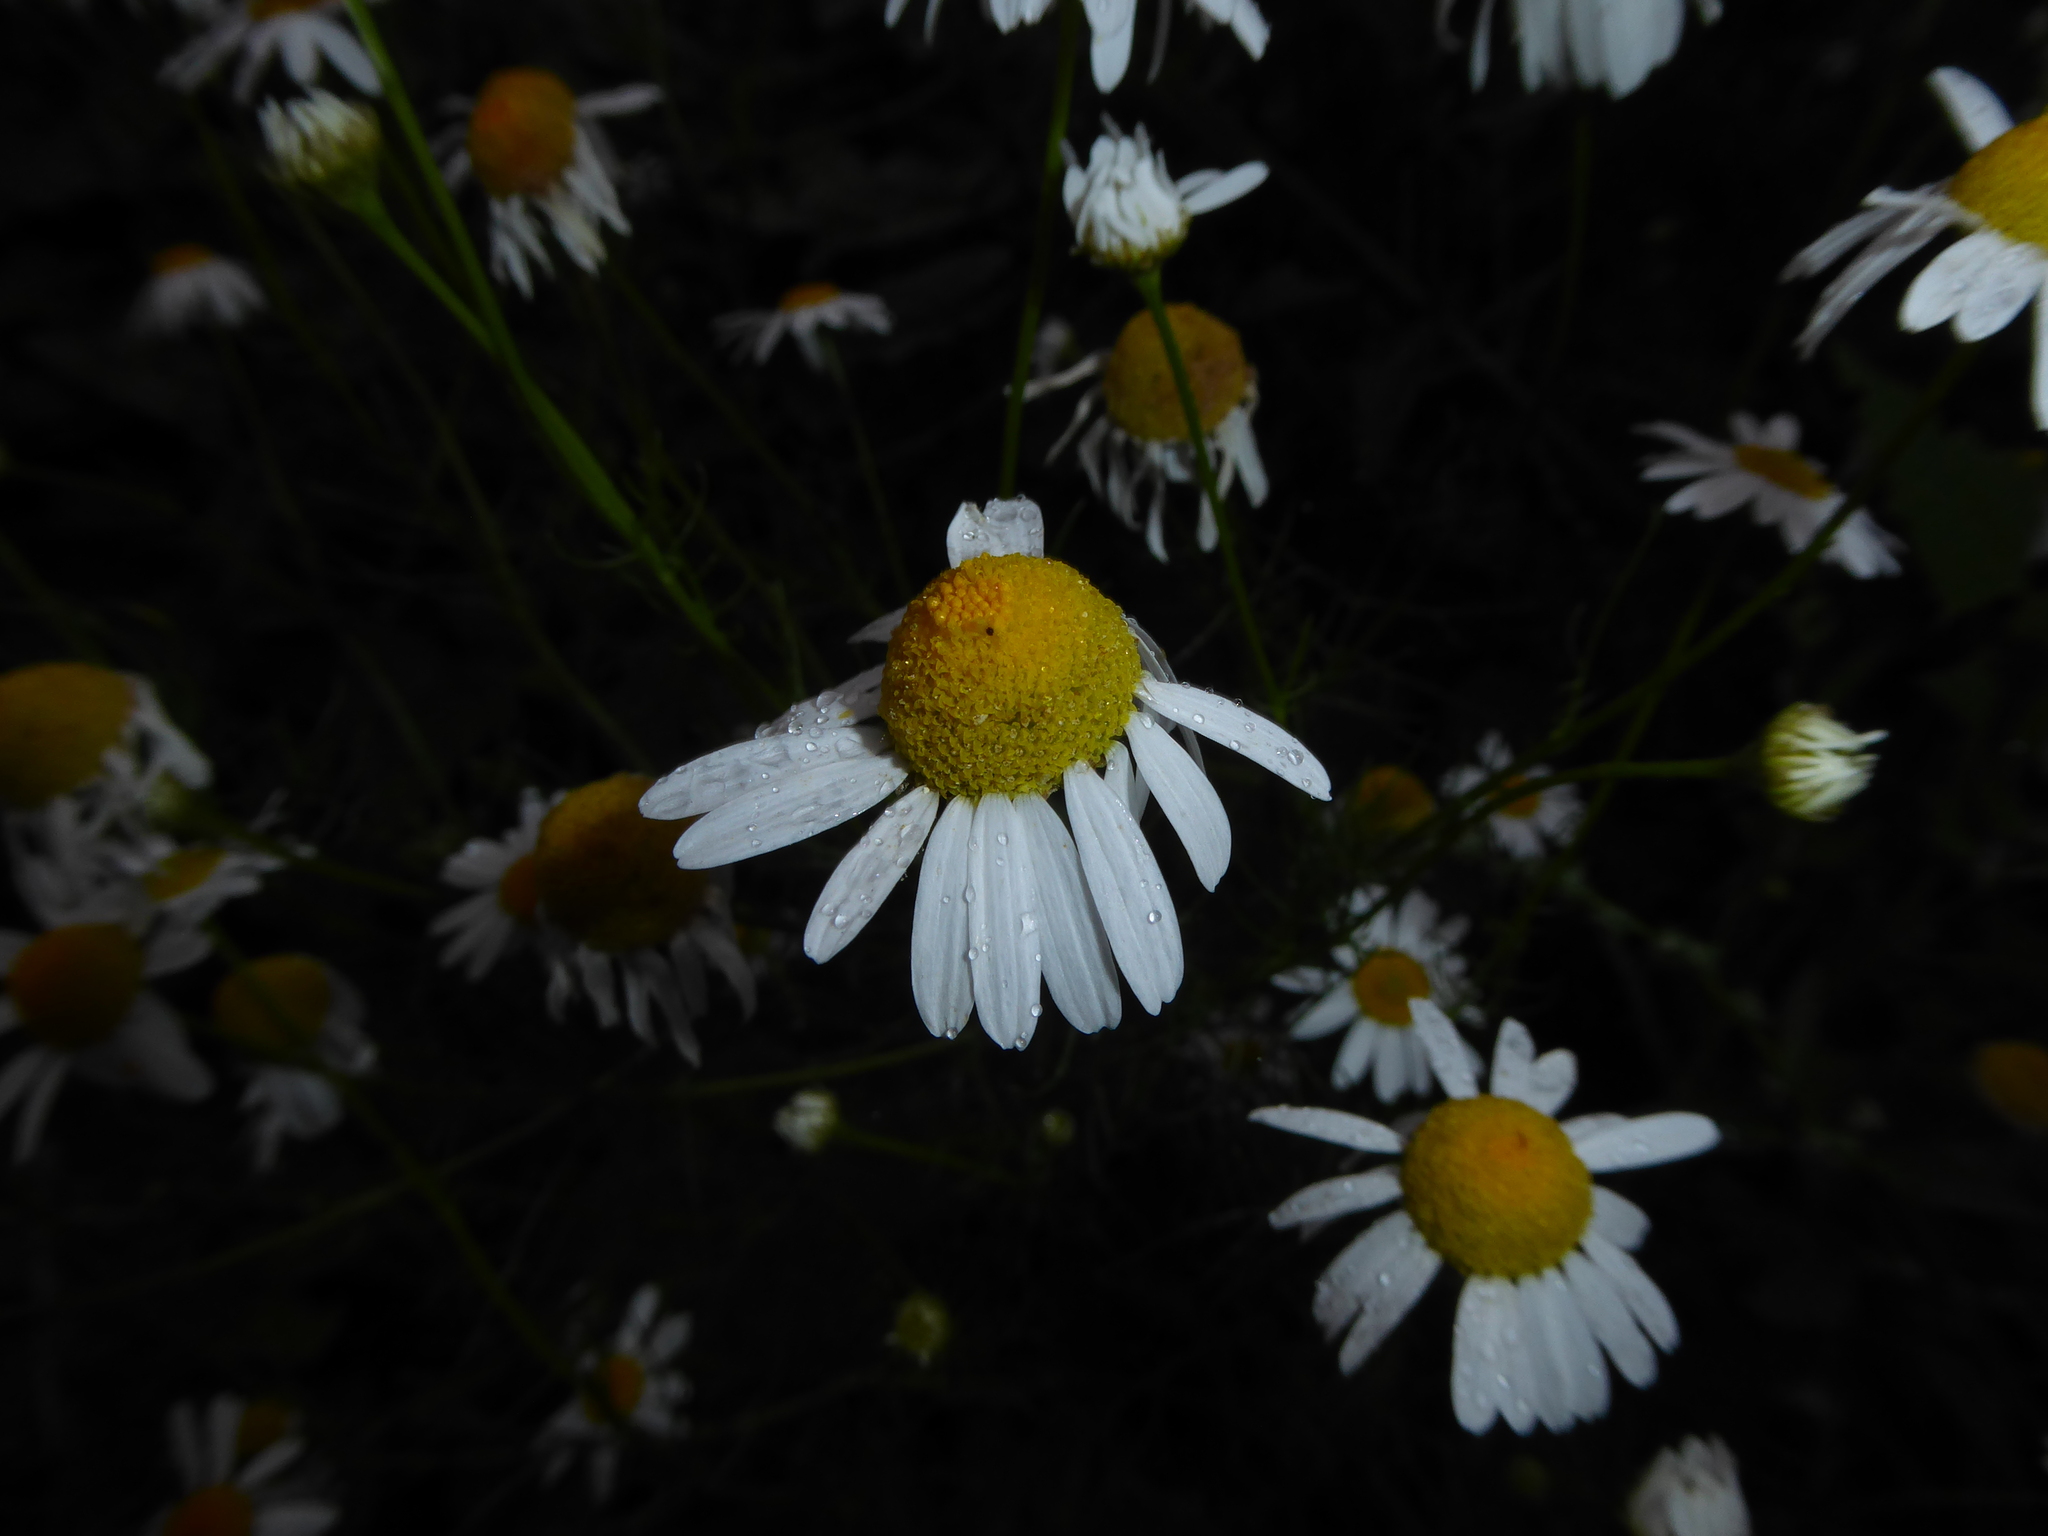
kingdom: Plantae
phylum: Tracheophyta
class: Magnoliopsida
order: Asterales
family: Asteraceae
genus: Tripleurospermum
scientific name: Tripleurospermum inodorum
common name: Scentless mayweed
